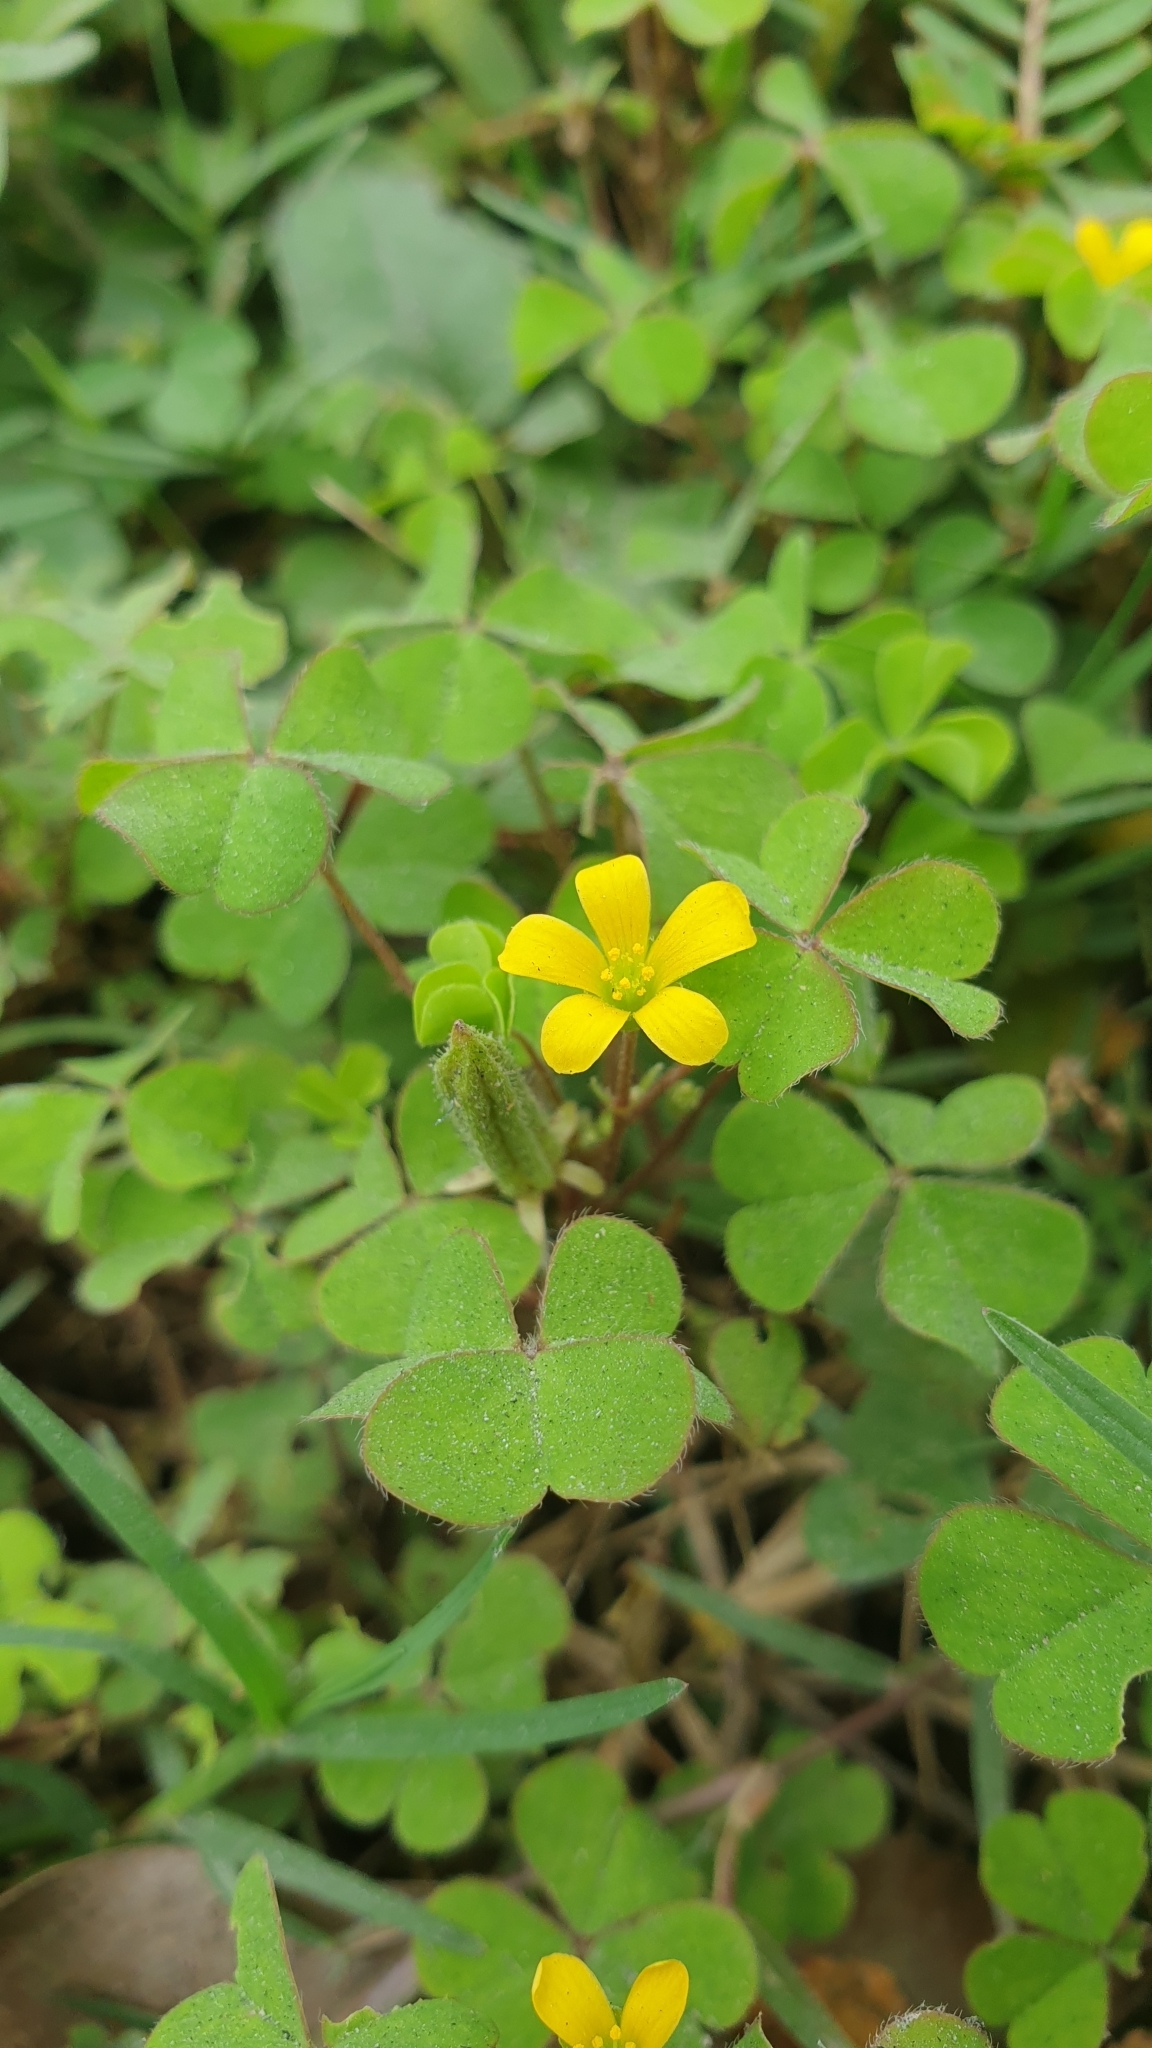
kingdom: Plantae
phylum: Tracheophyta
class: Magnoliopsida
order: Oxalidales
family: Oxalidaceae
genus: Oxalis
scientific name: Oxalis corniculata
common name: Procumbent yellow-sorrel
